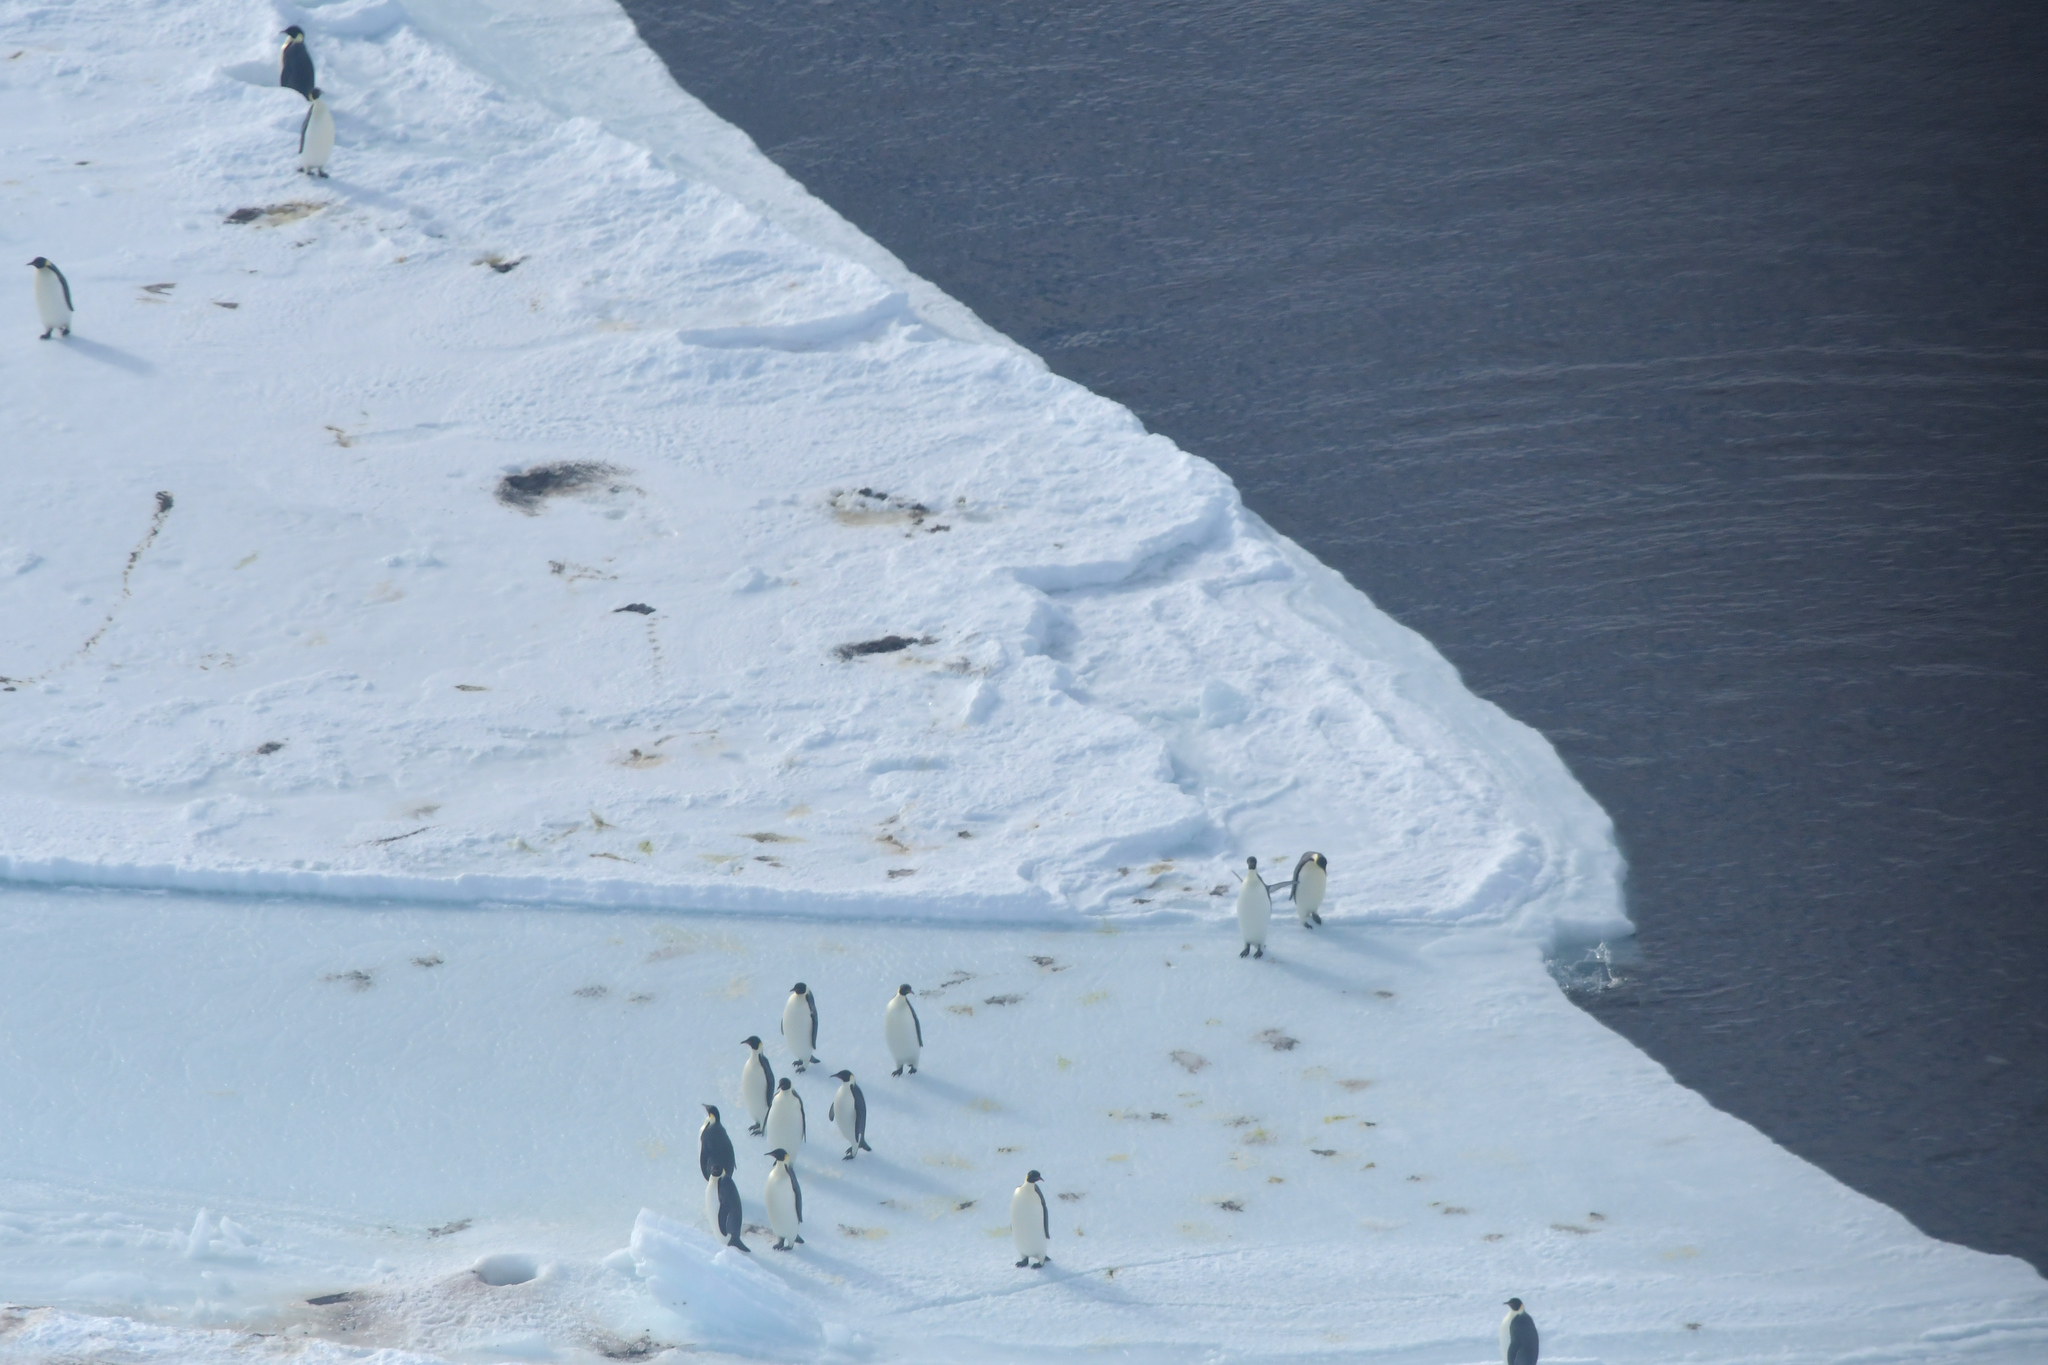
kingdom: Animalia
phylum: Chordata
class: Aves
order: Sphenisciformes
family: Spheniscidae
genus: Aptenodytes
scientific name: Aptenodytes forsteri
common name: Emperor penguin
